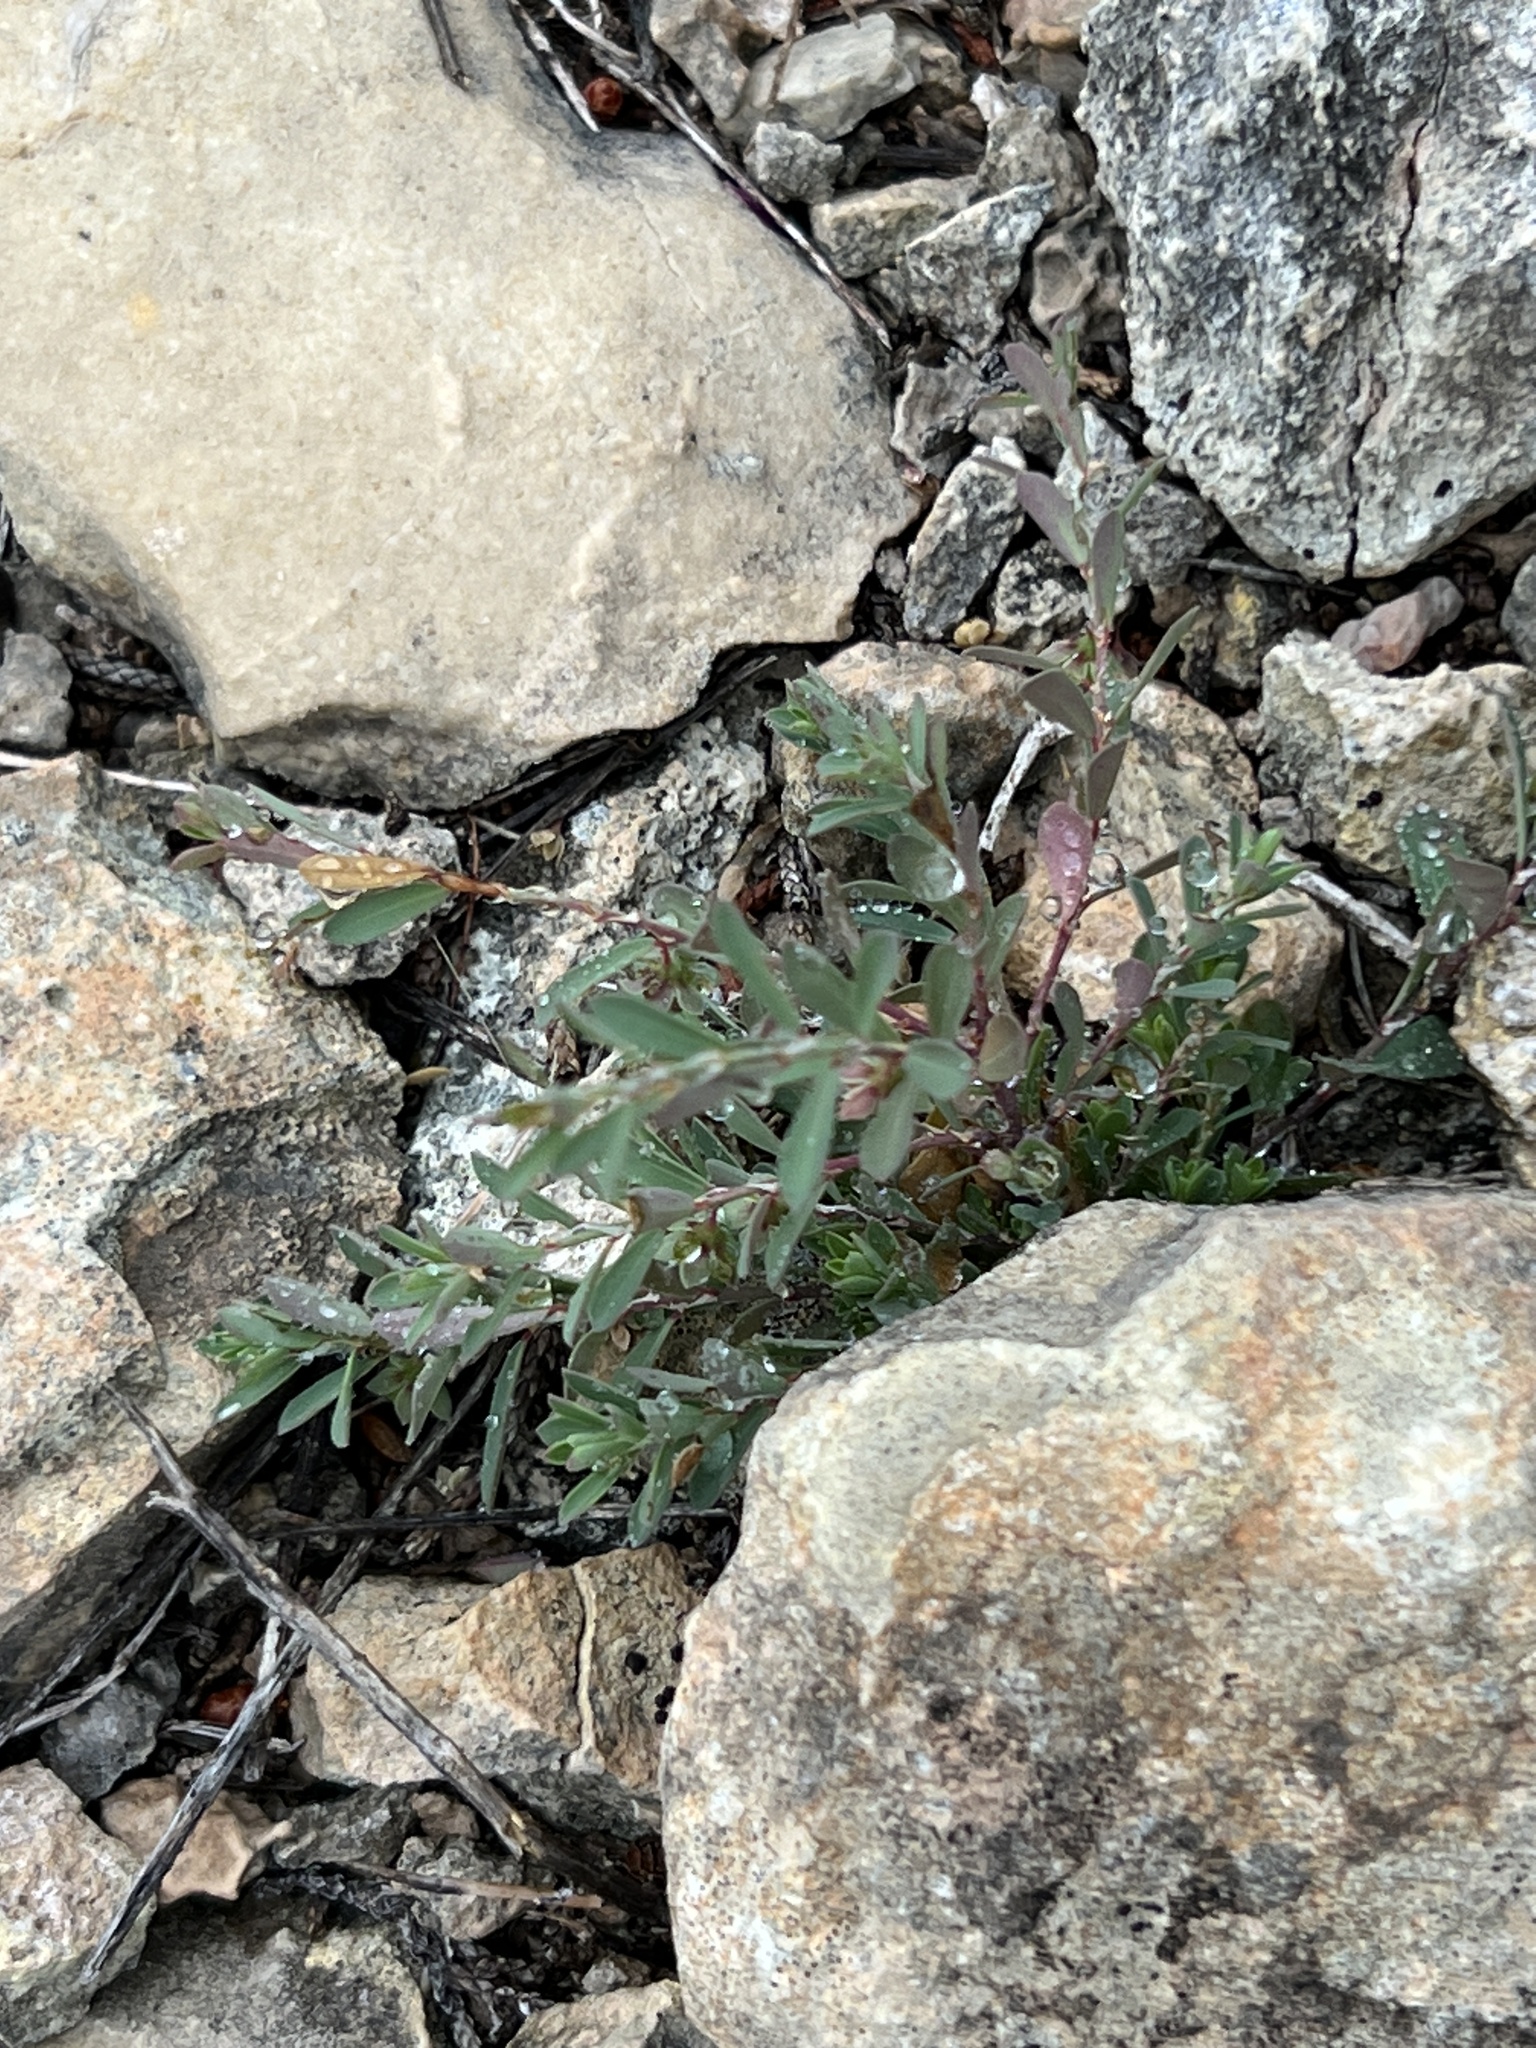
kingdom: Plantae
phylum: Tracheophyta
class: Magnoliopsida
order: Malpighiales
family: Phyllanthaceae
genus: Phyllanthus
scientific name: Phyllanthus polygonoides
